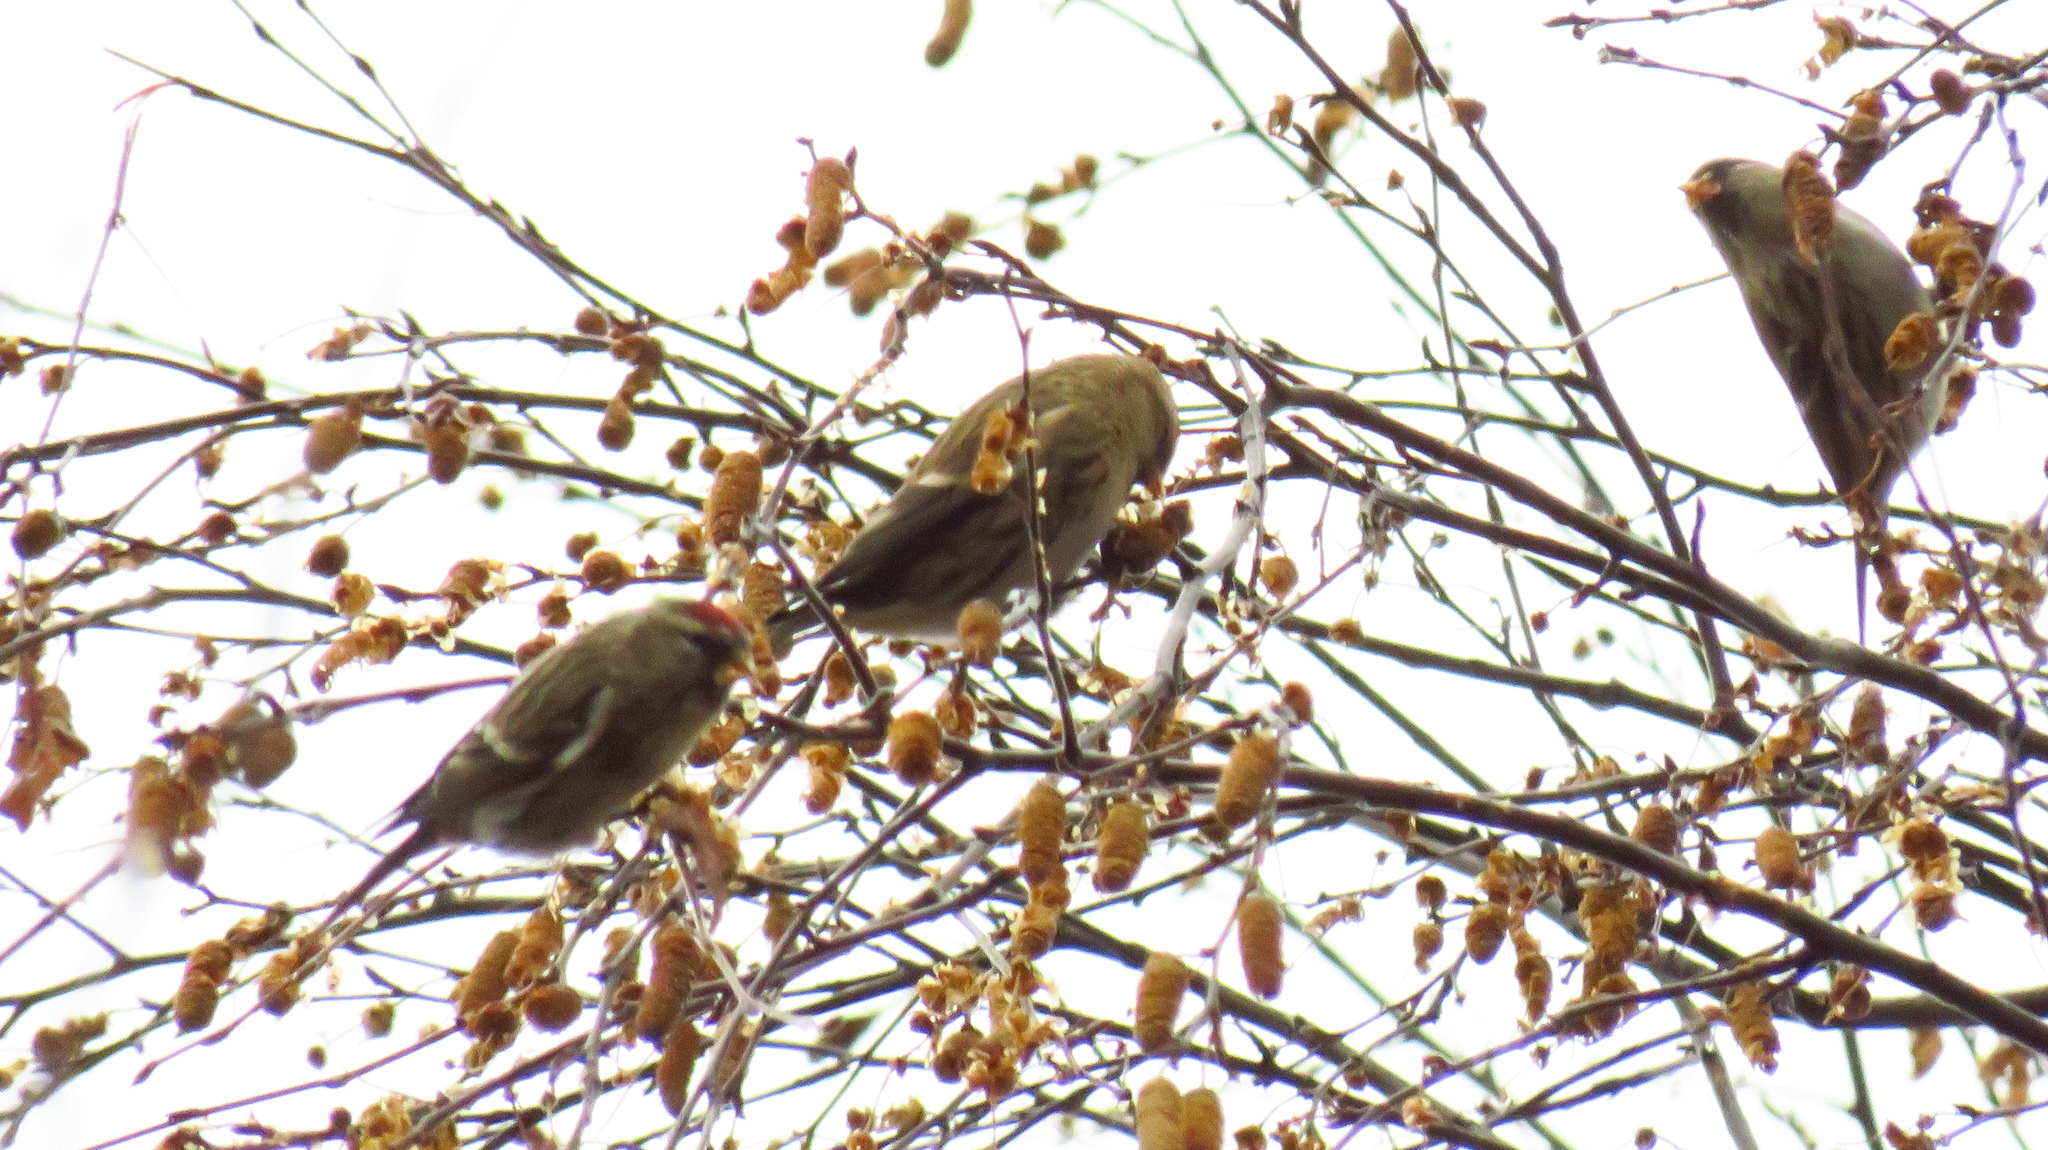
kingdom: Animalia
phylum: Chordata
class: Aves
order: Passeriformes
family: Fringillidae
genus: Acanthis
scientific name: Acanthis flammea
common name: Common redpoll
